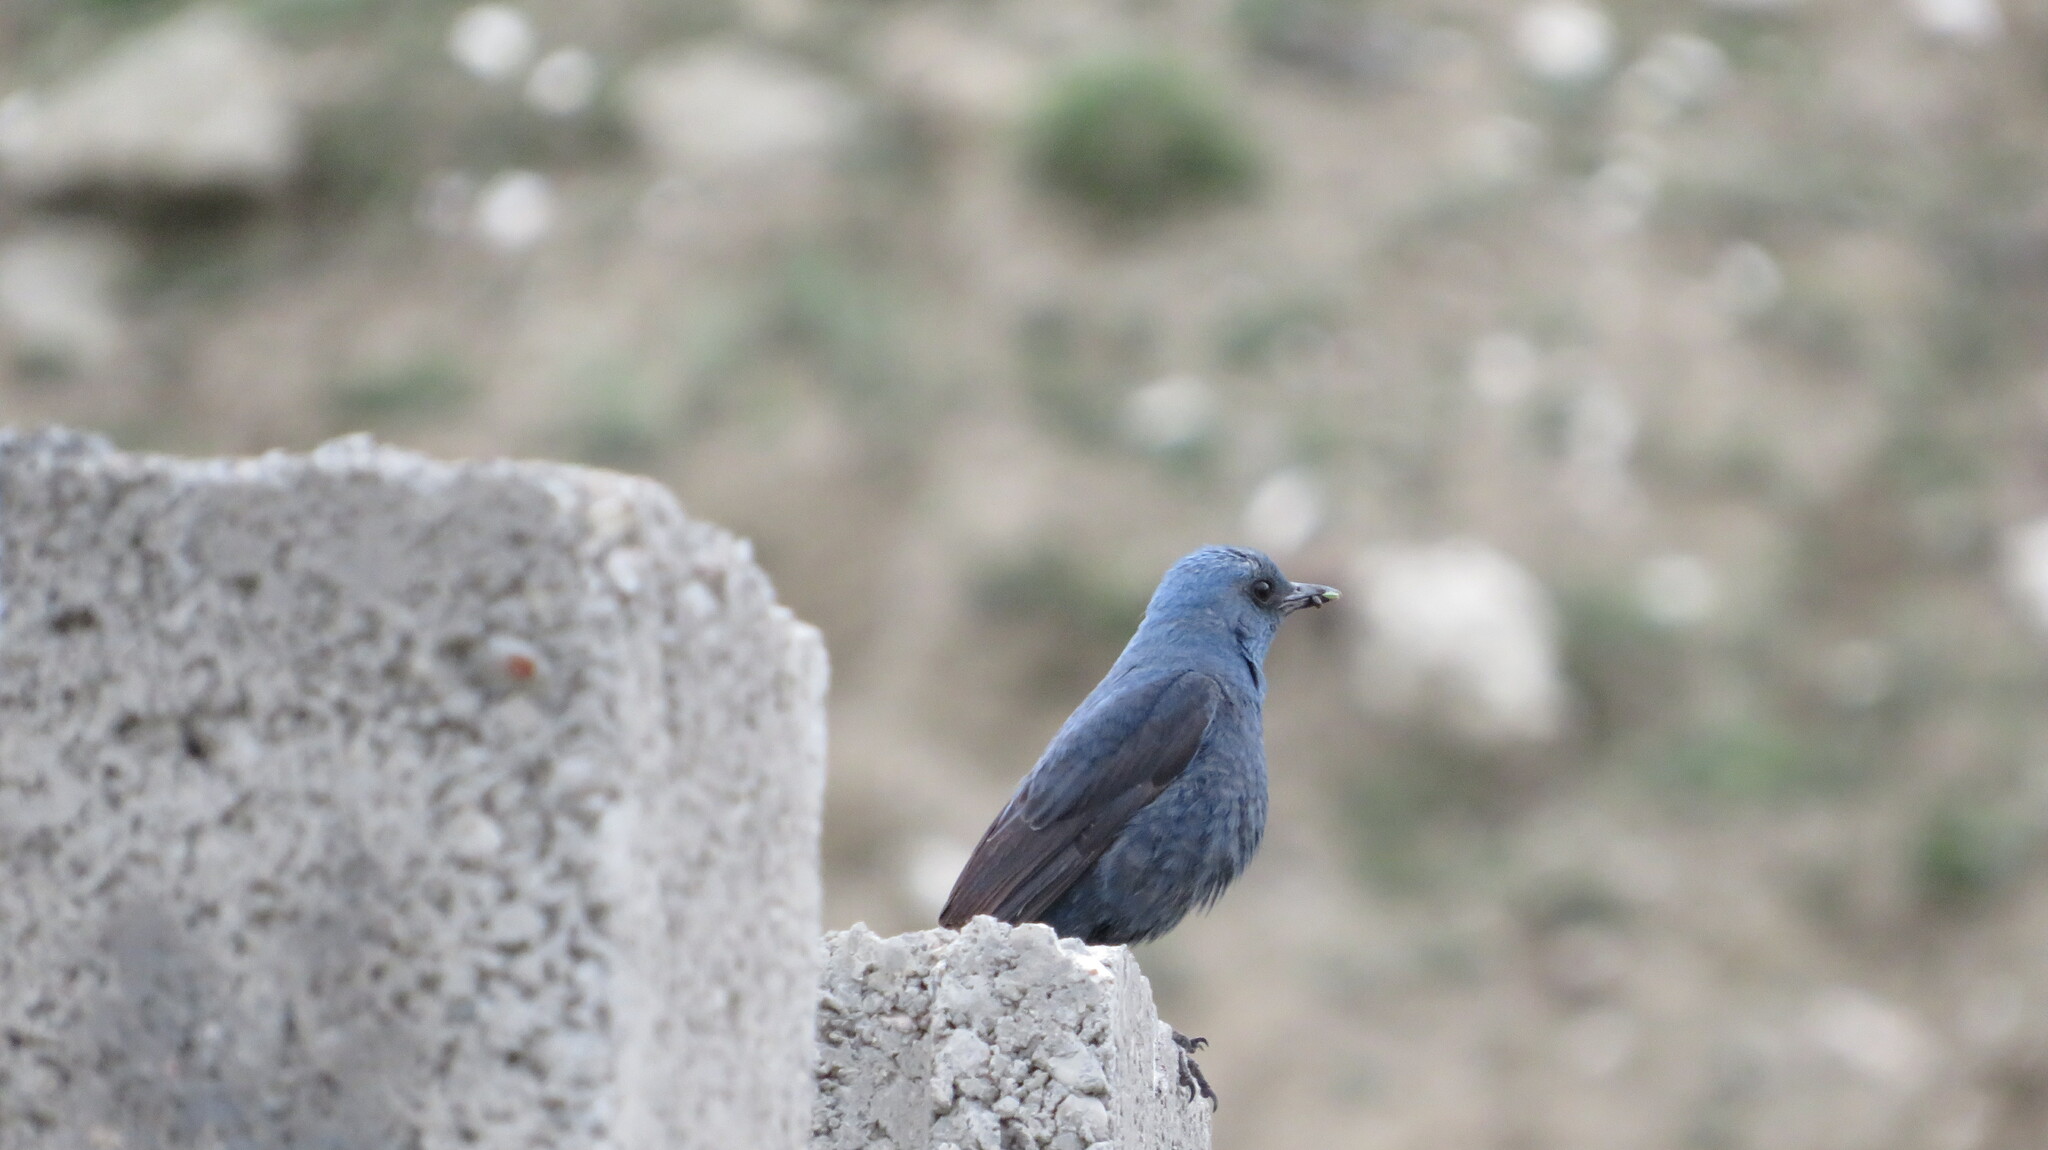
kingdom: Animalia
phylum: Chordata
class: Aves
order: Passeriformes
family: Muscicapidae
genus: Monticola
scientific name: Monticola solitarius
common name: Blue rock thrush
